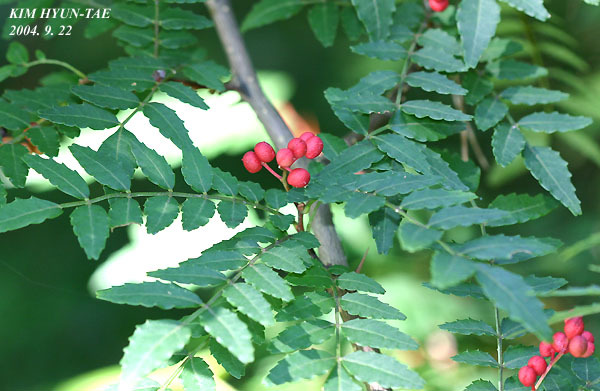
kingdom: Plantae
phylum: Tracheophyta
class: Magnoliopsida
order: Sapindales
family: Rutaceae
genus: Zanthoxylum
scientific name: Zanthoxylum schinifolium
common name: Sichuan-pepper
